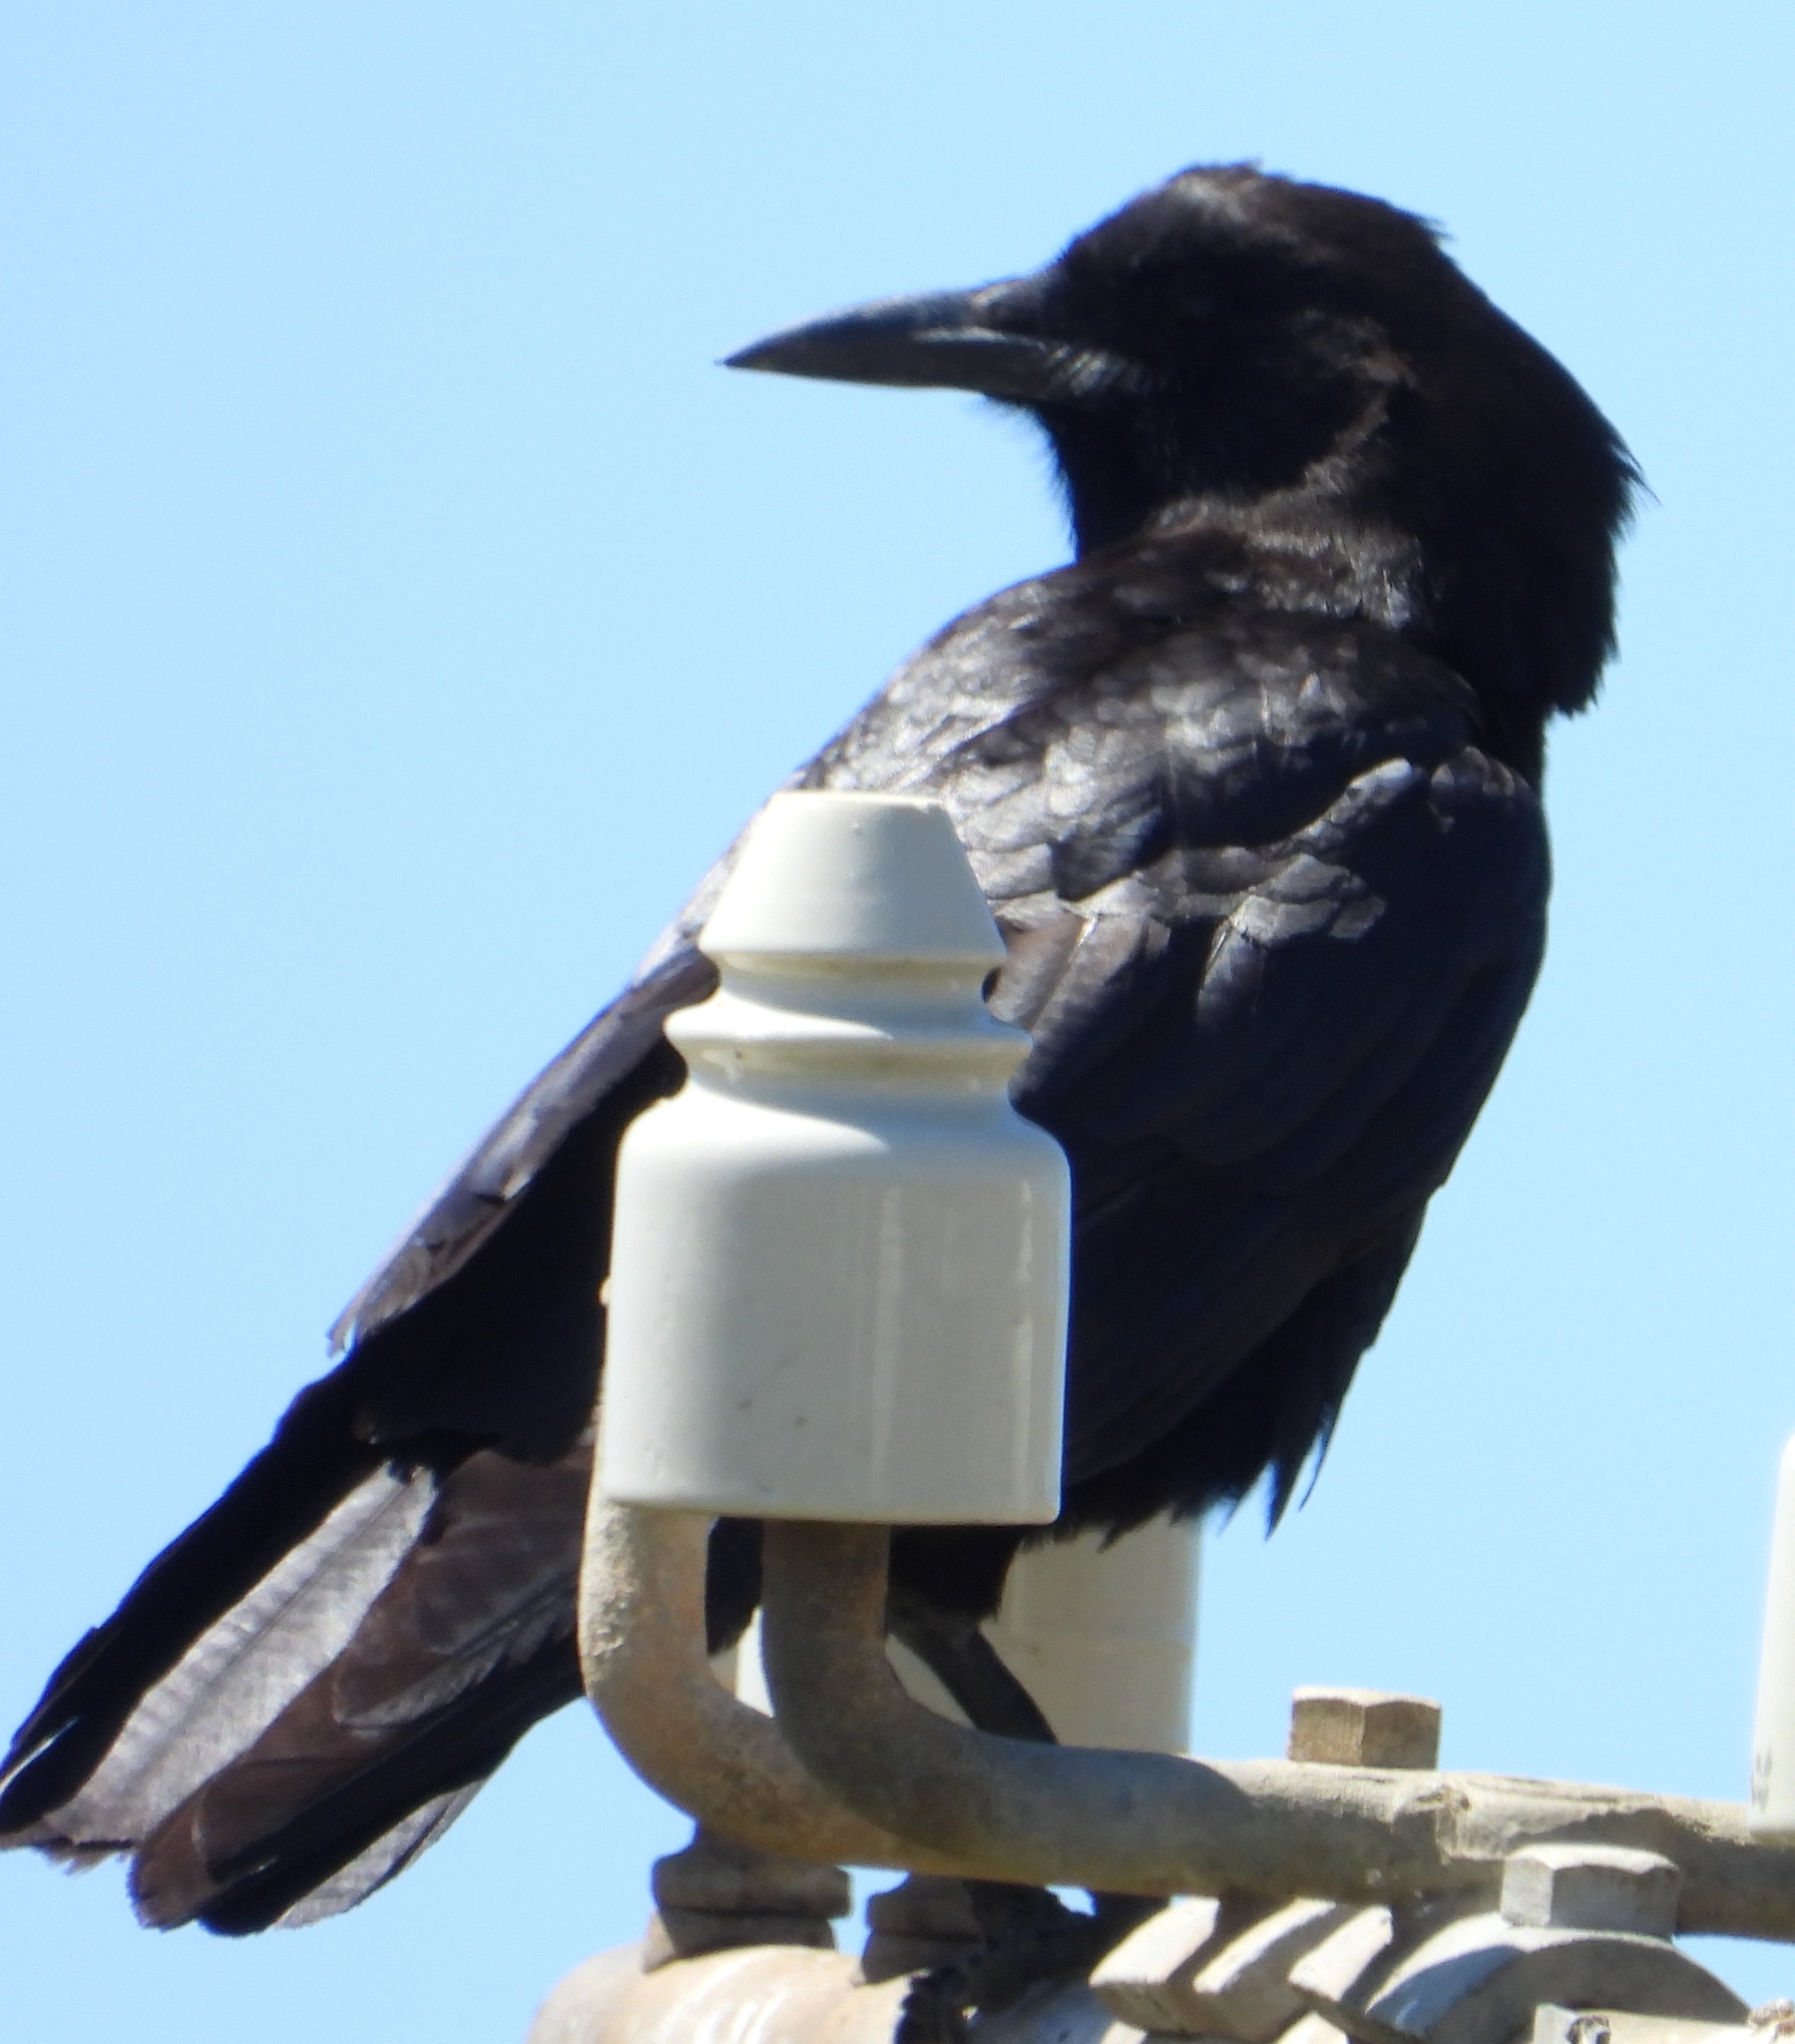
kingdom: Animalia
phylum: Chordata
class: Aves
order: Passeriformes
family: Corvidae
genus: Corvus
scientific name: Corvus capensis
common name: Cape crow
